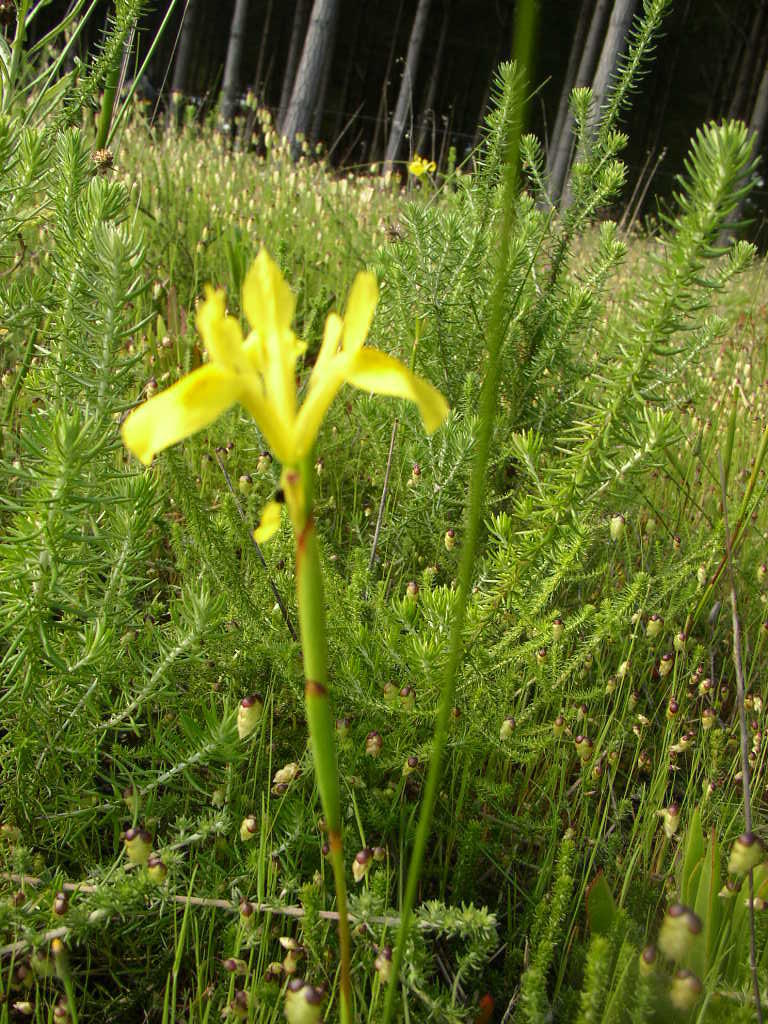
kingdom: Plantae
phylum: Tracheophyta
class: Liliopsida
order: Asparagales
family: Iridaceae
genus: Moraea
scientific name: Moraea neglecta
